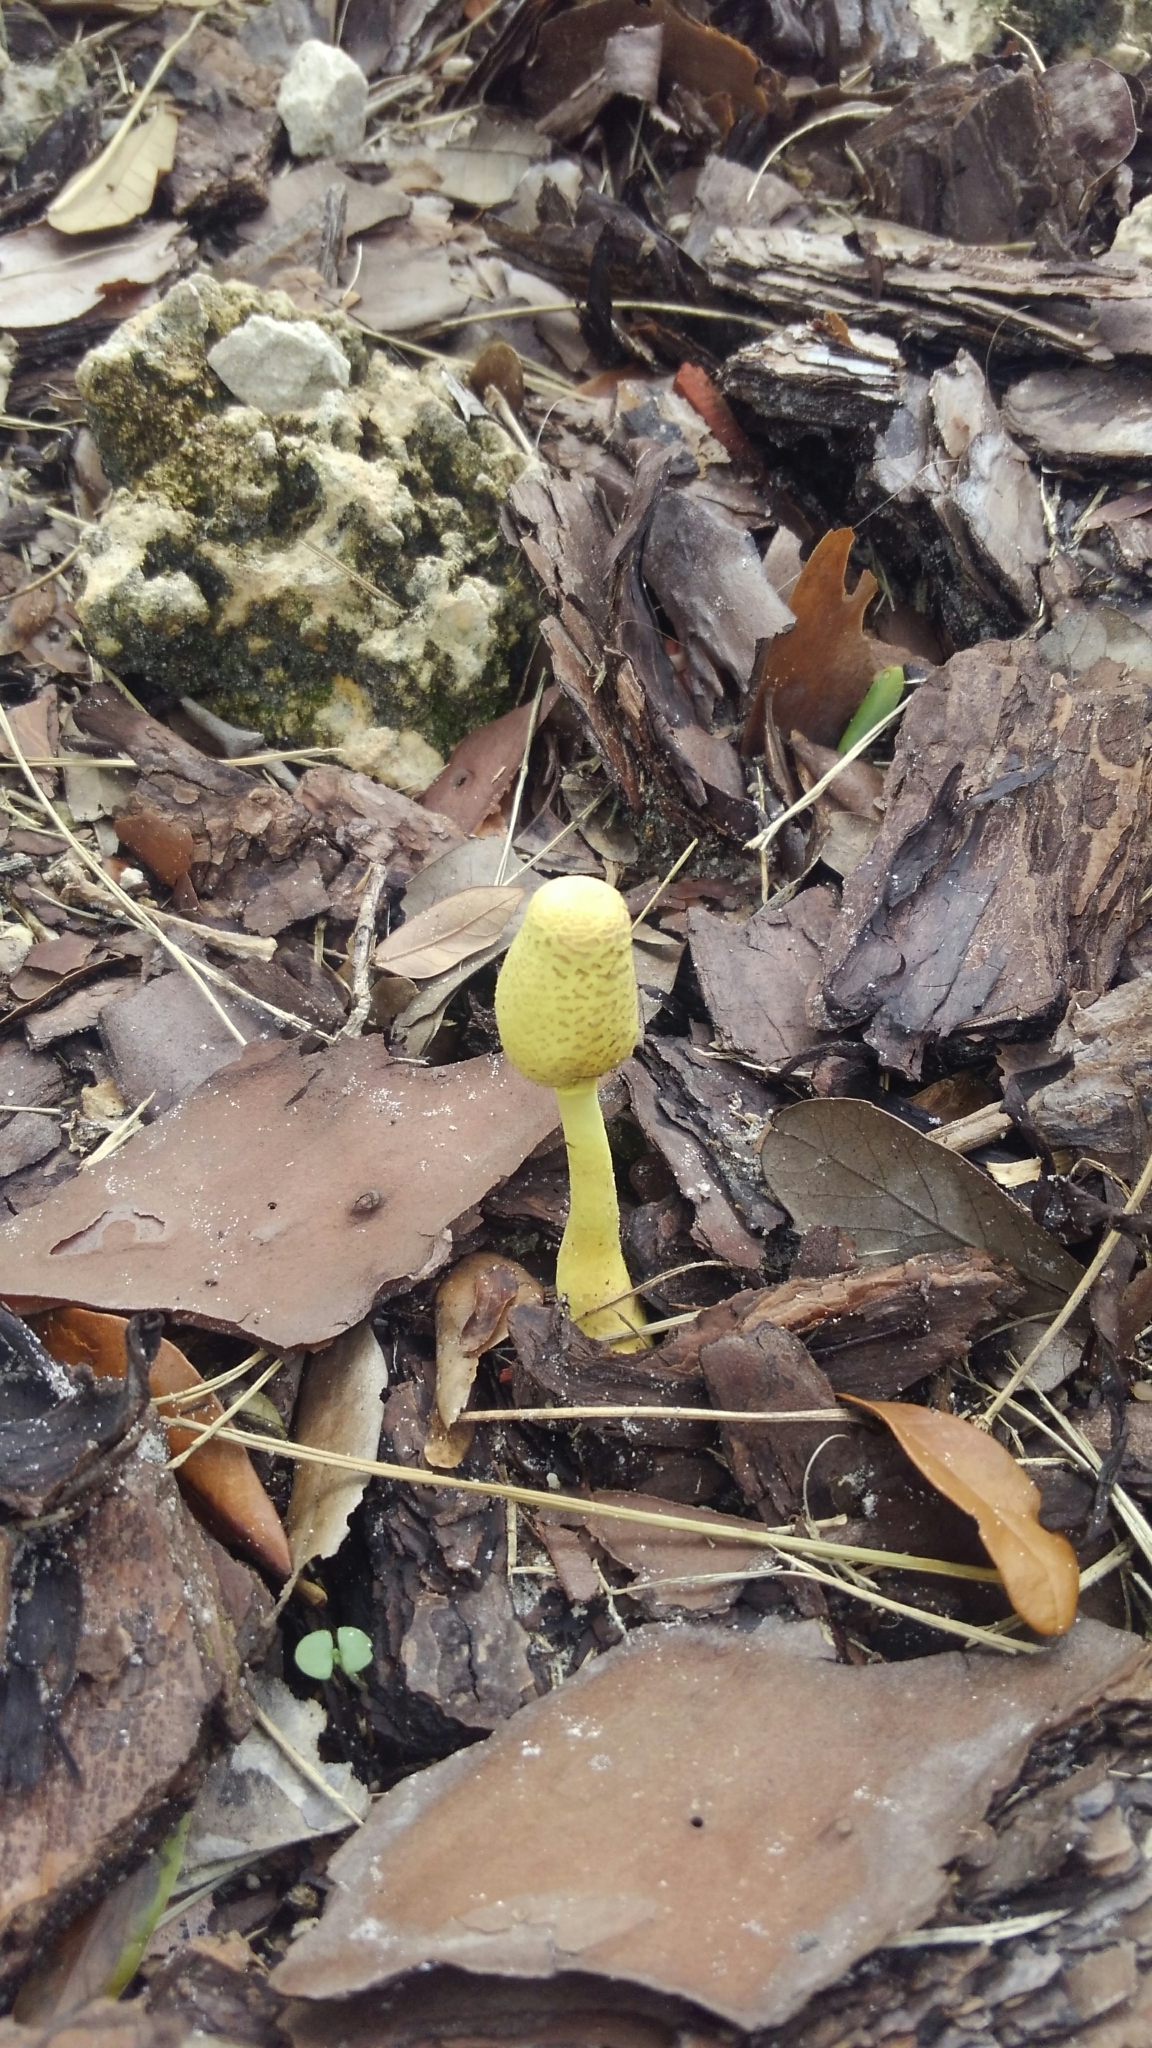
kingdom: Fungi
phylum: Basidiomycota
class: Agaricomycetes
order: Agaricales
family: Agaricaceae
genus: Leucocoprinus
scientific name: Leucocoprinus birnbaumii
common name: Plantpot dapperling
